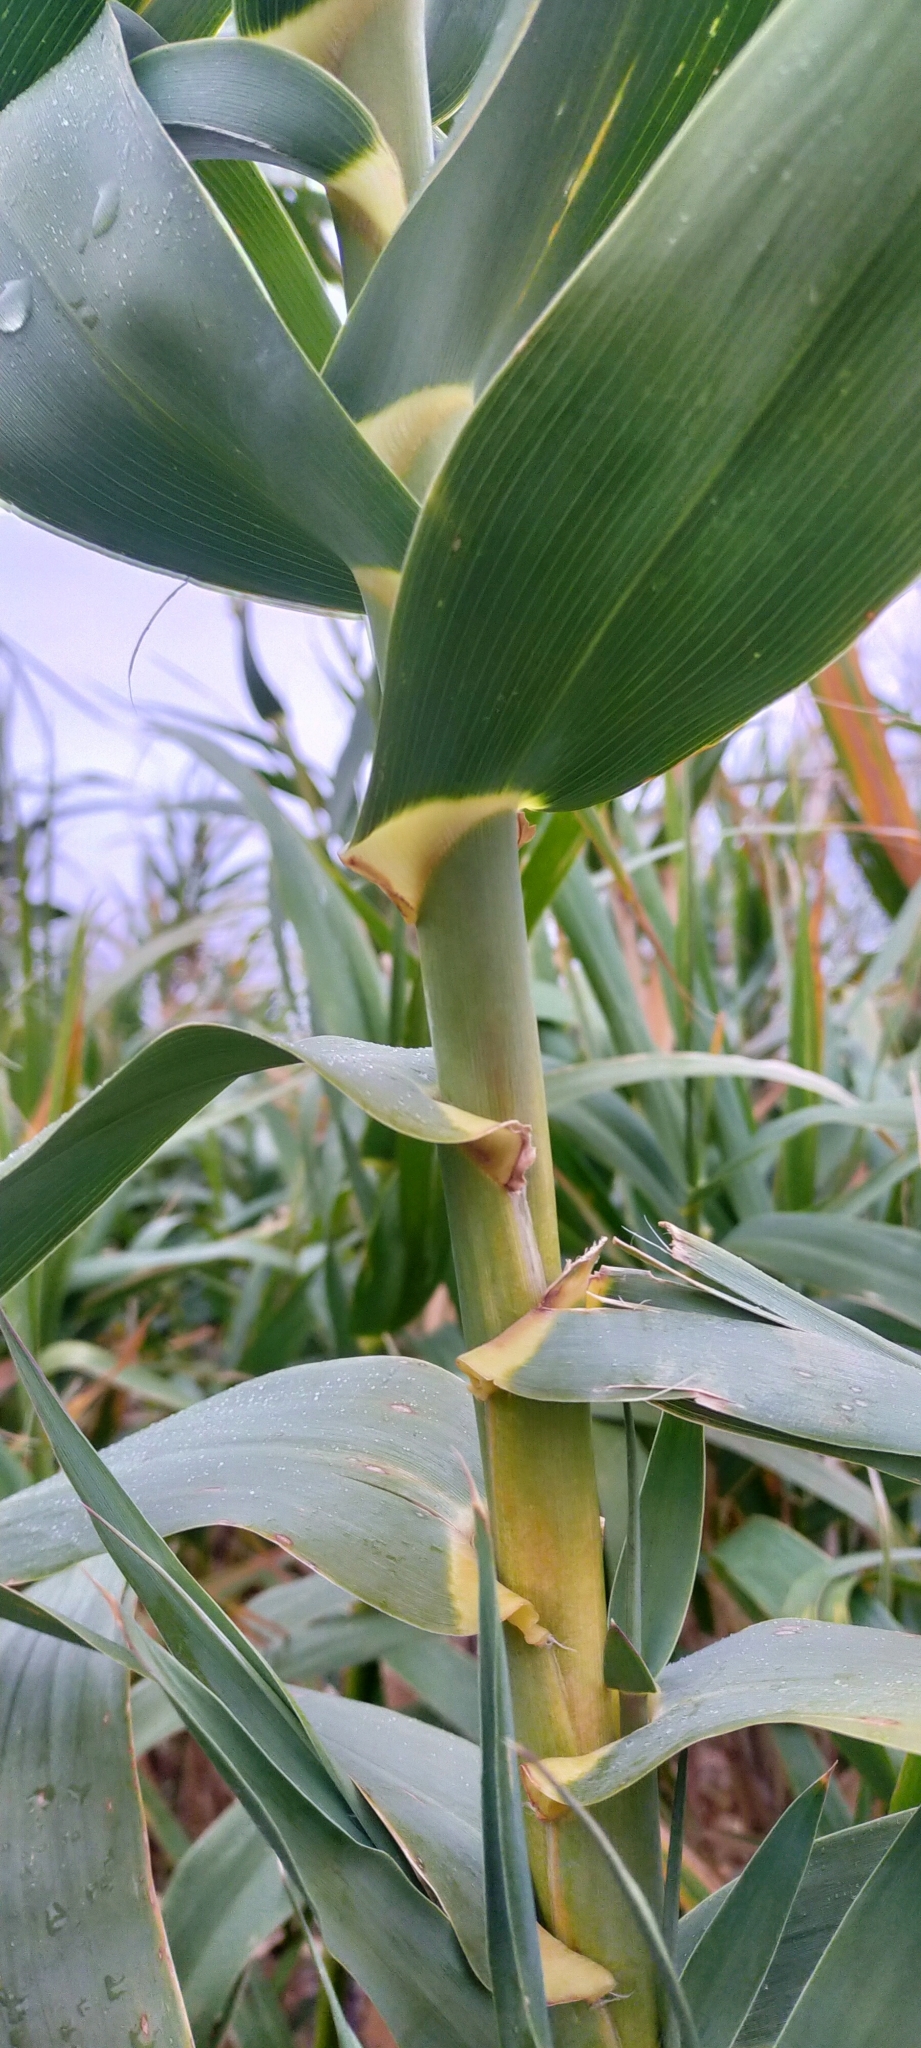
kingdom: Plantae
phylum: Tracheophyta
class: Liliopsida
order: Poales
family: Poaceae
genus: Arundo
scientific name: Arundo donax
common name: Giant reed
